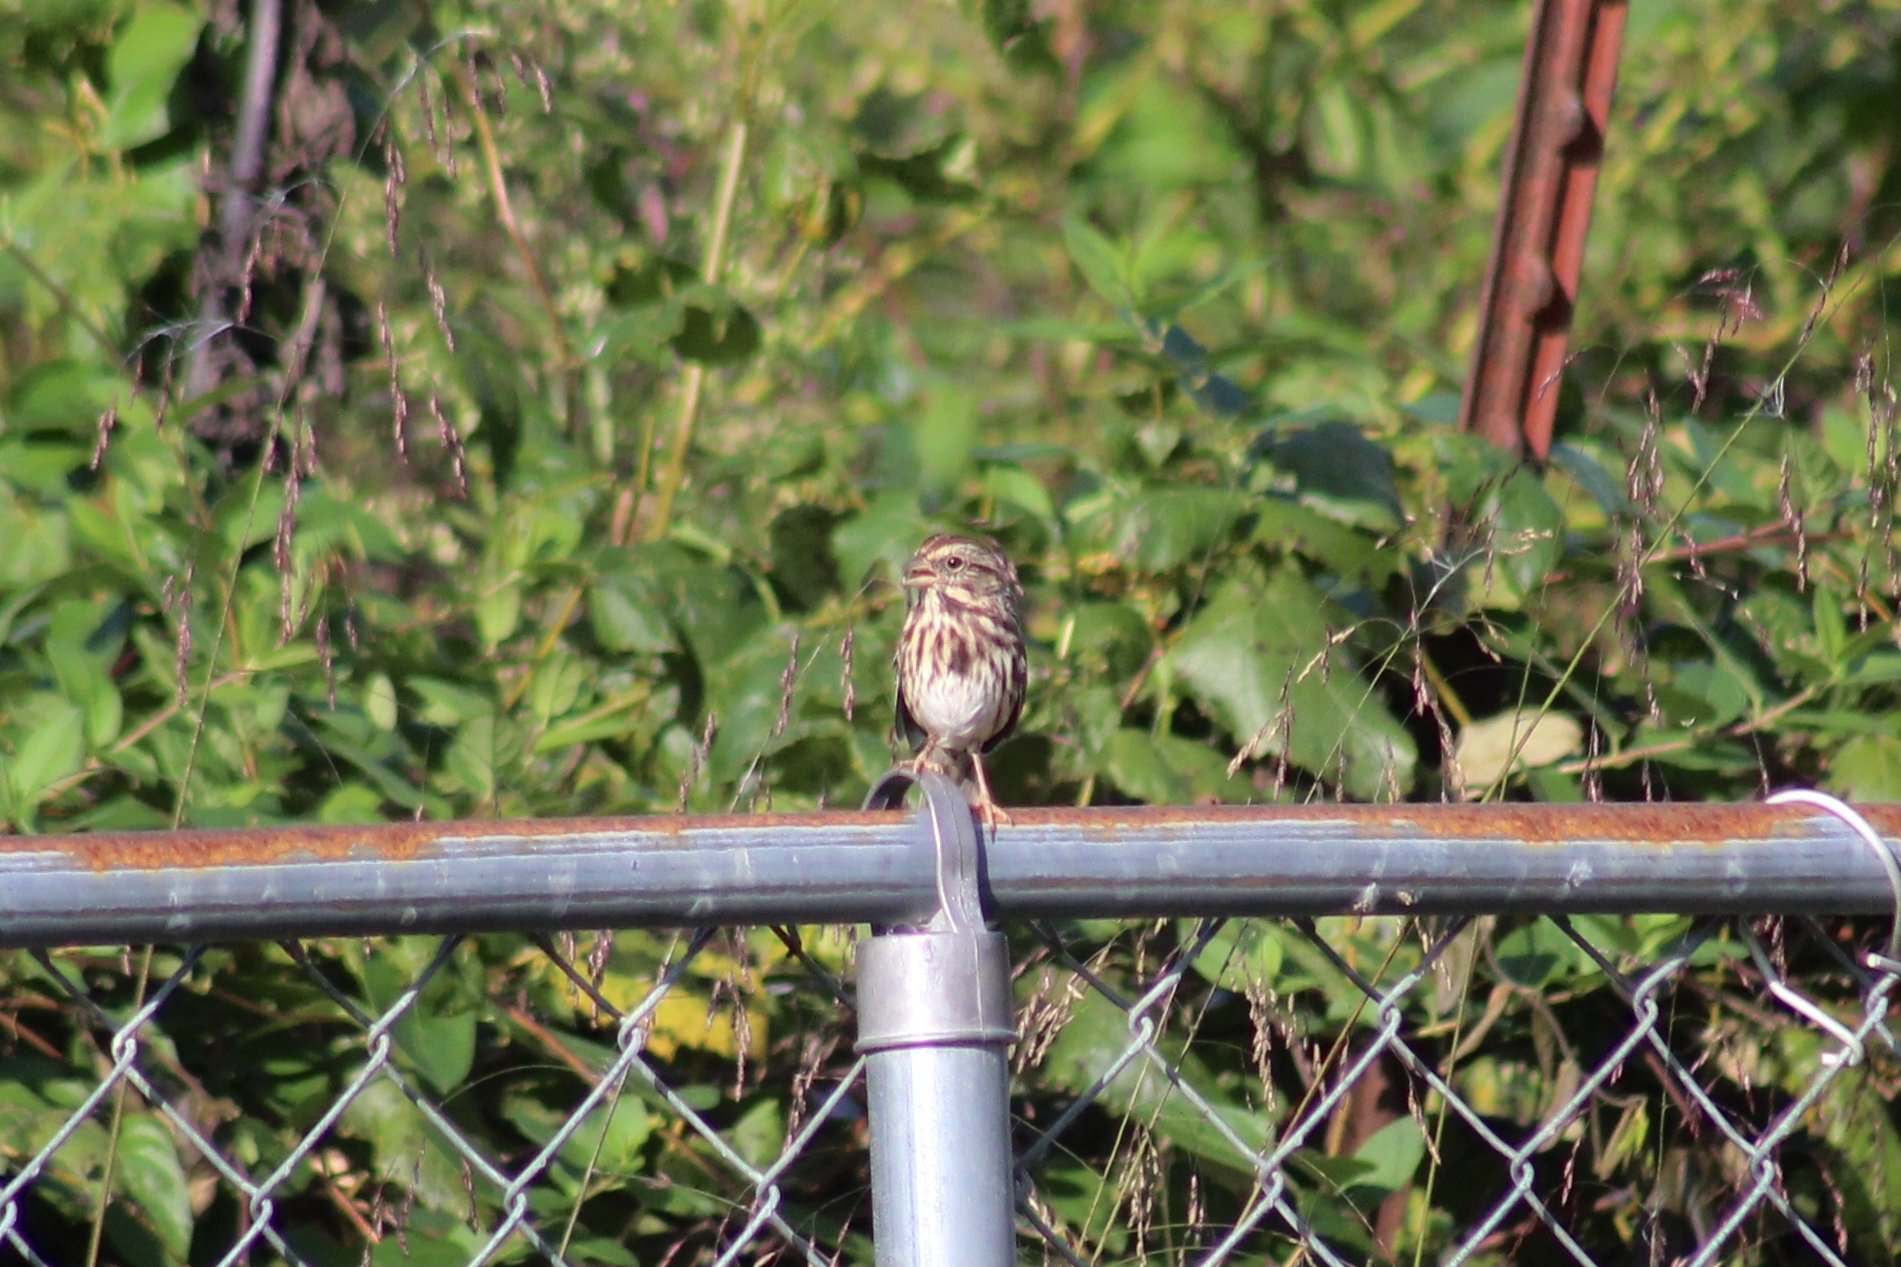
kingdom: Animalia
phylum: Chordata
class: Aves
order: Passeriformes
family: Passerellidae
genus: Melospiza
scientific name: Melospiza melodia
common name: Song sparrow
